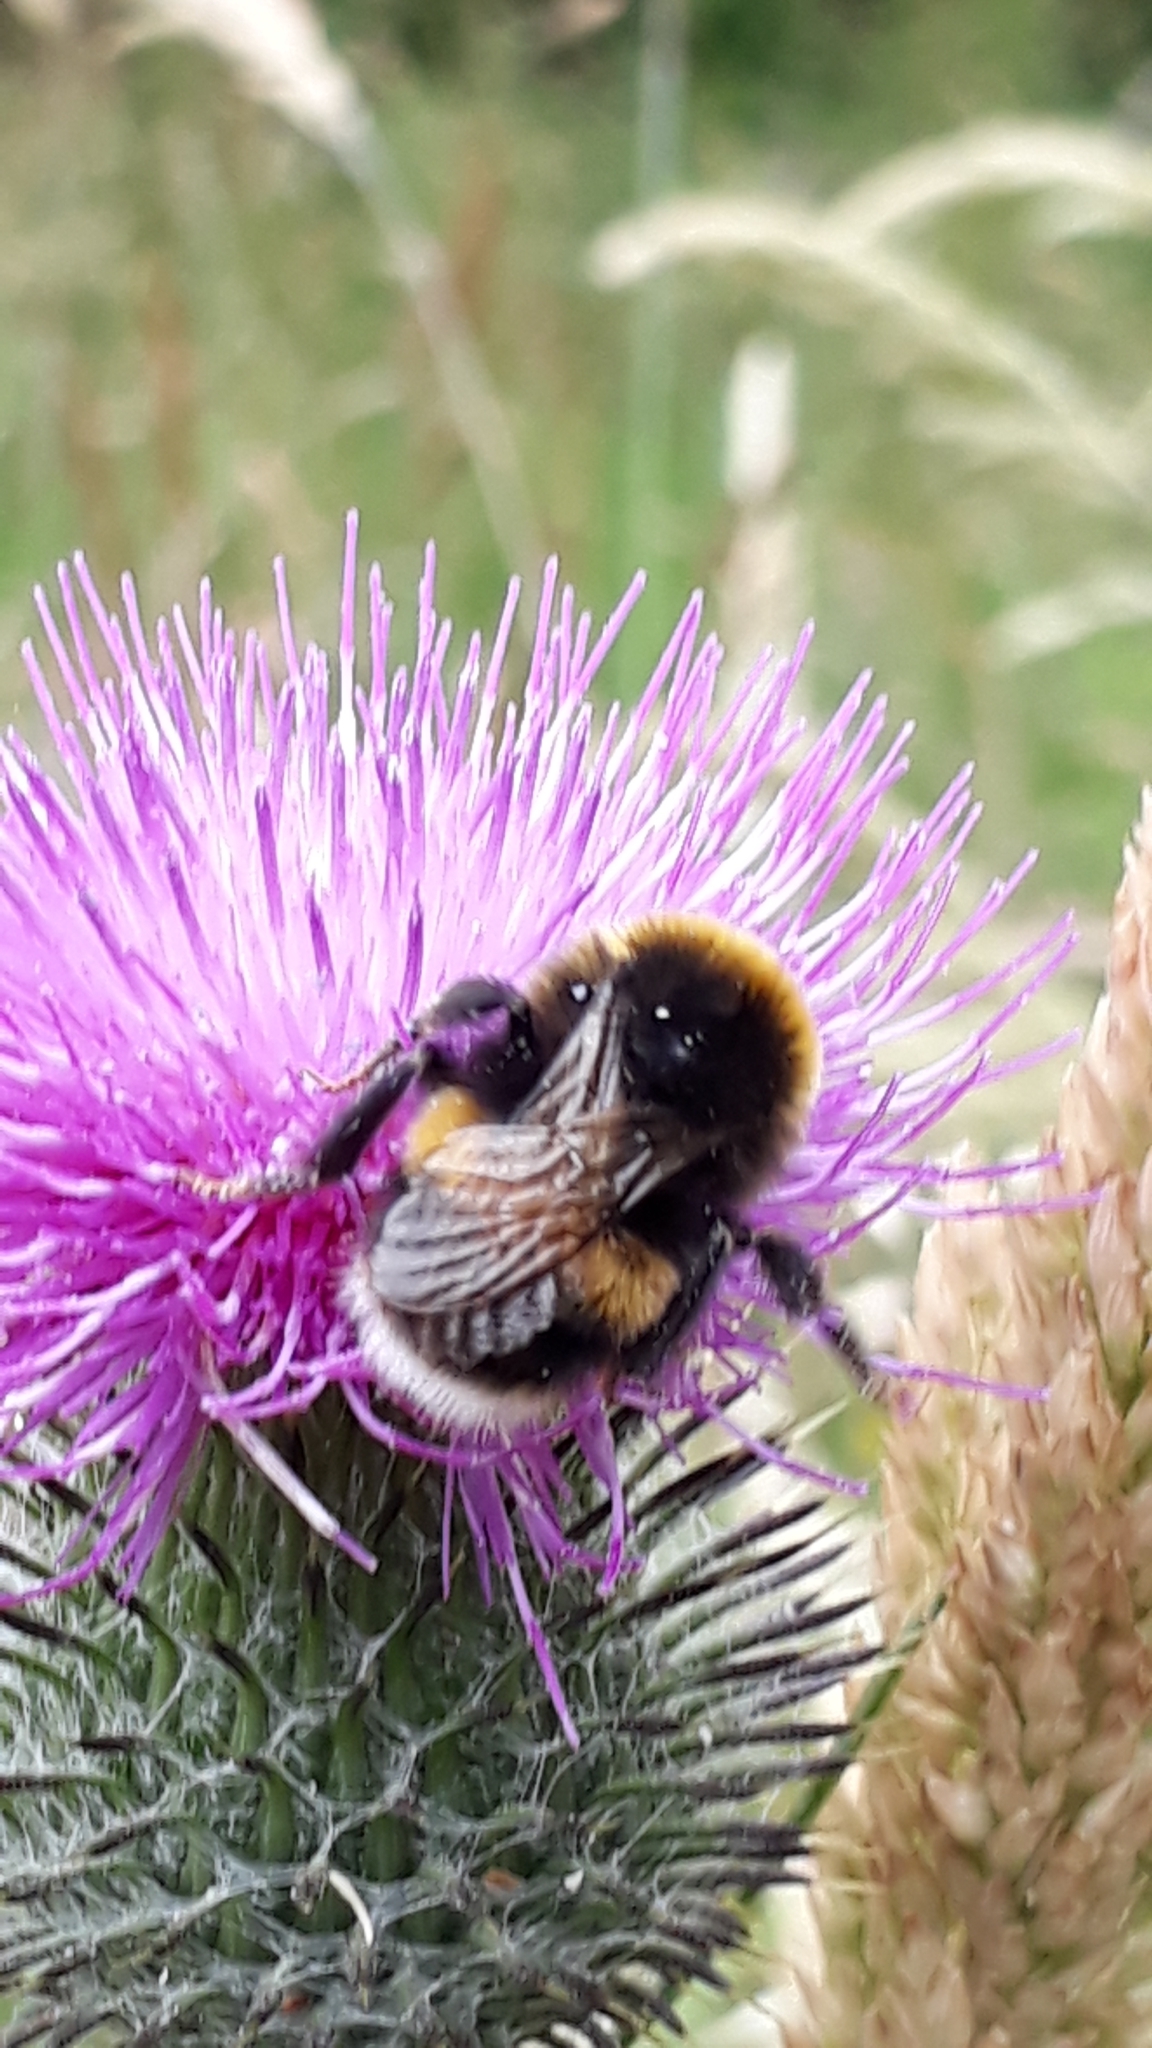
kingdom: Animalia
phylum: Arthropoda
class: Insecta
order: Hymenoptera
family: Apidae
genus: Bombus
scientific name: Bombus terrestris
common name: Buff-tailed bumblebee
